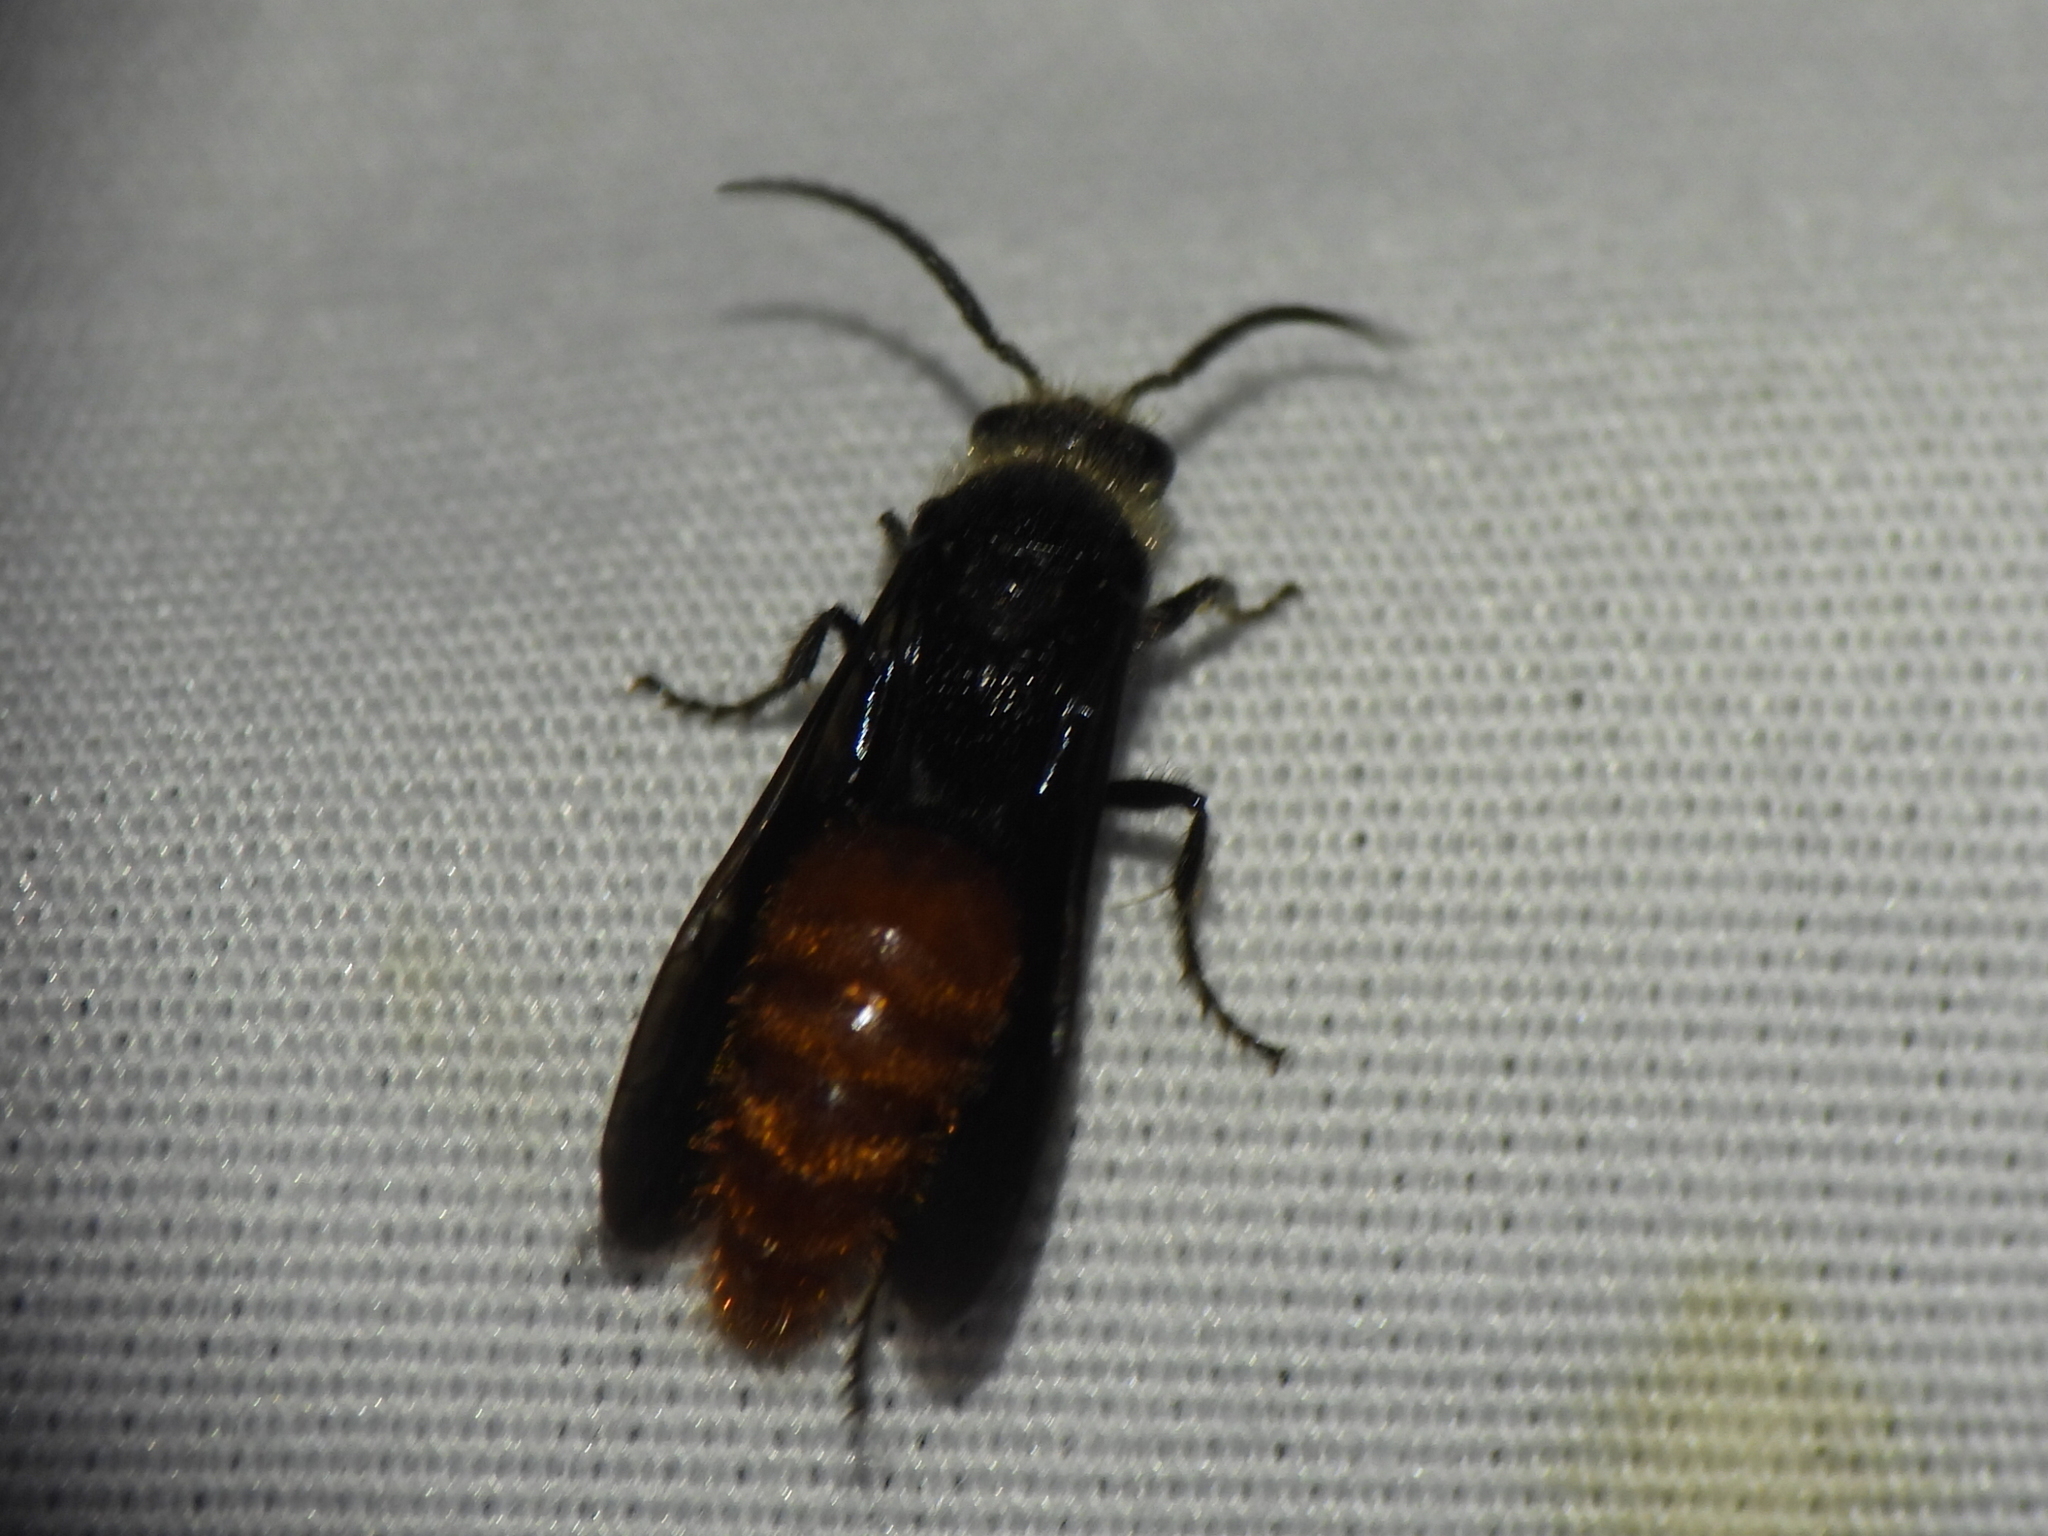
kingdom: Animalia
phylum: Arthropoda
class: Insecta
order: Hymenoptera
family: Mutillidae
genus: Timulla
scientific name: Timulla
